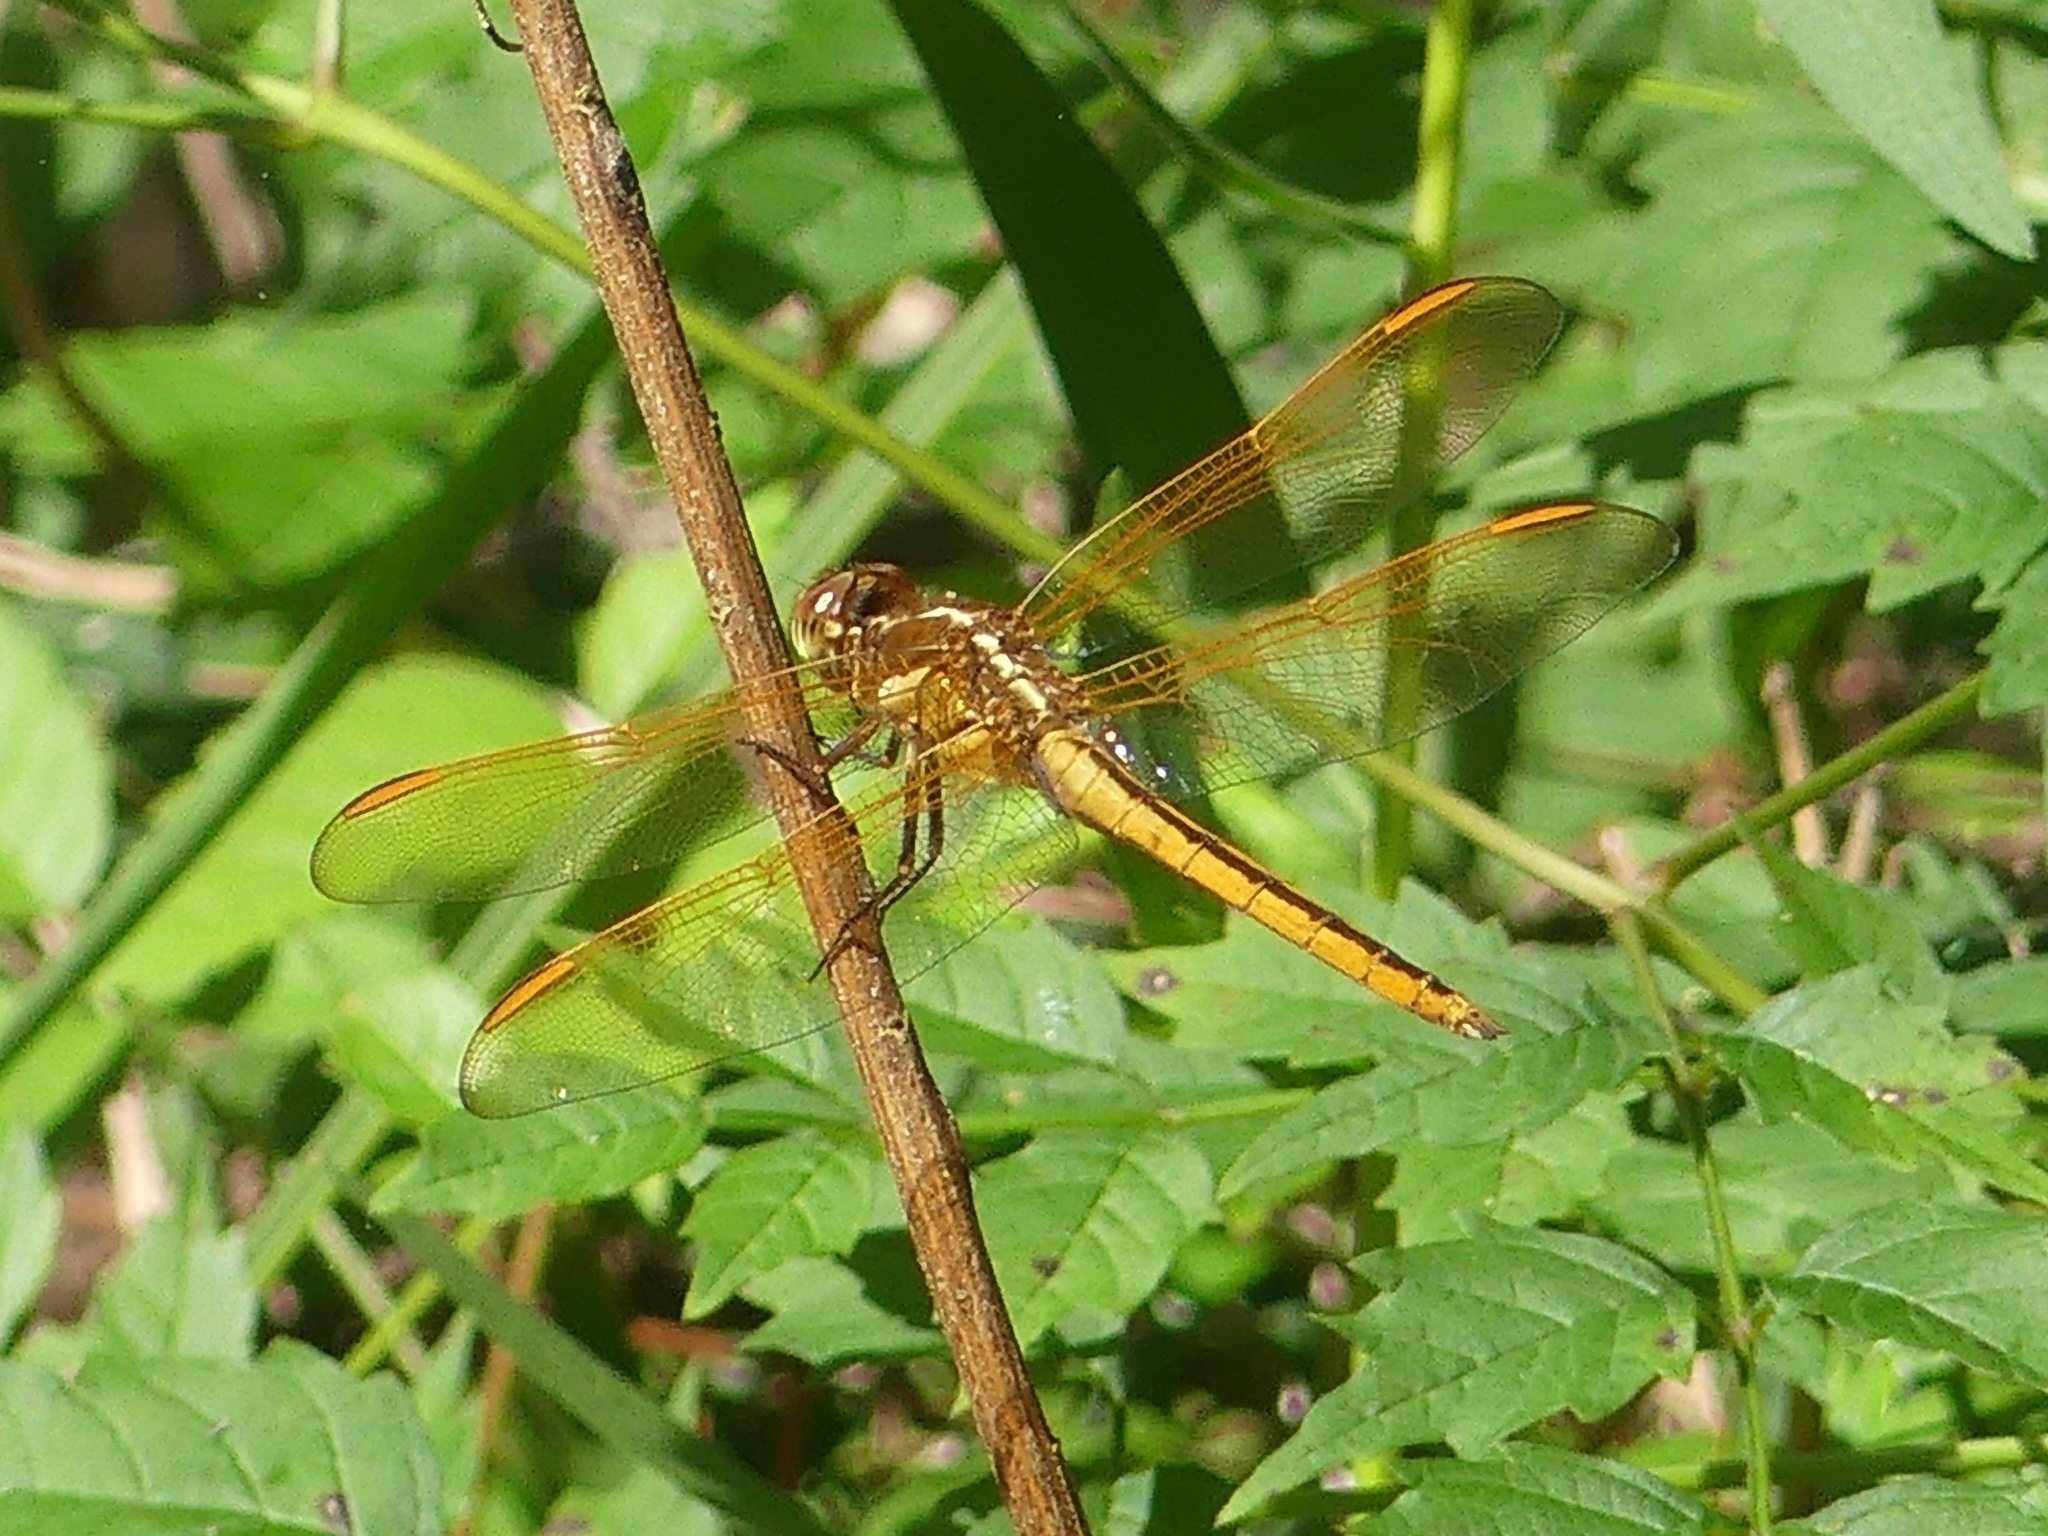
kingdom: Animalia
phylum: Arthropoda
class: Insecta
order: Odonata
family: Libellulidae
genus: Libellula
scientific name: Libellula auripennis
